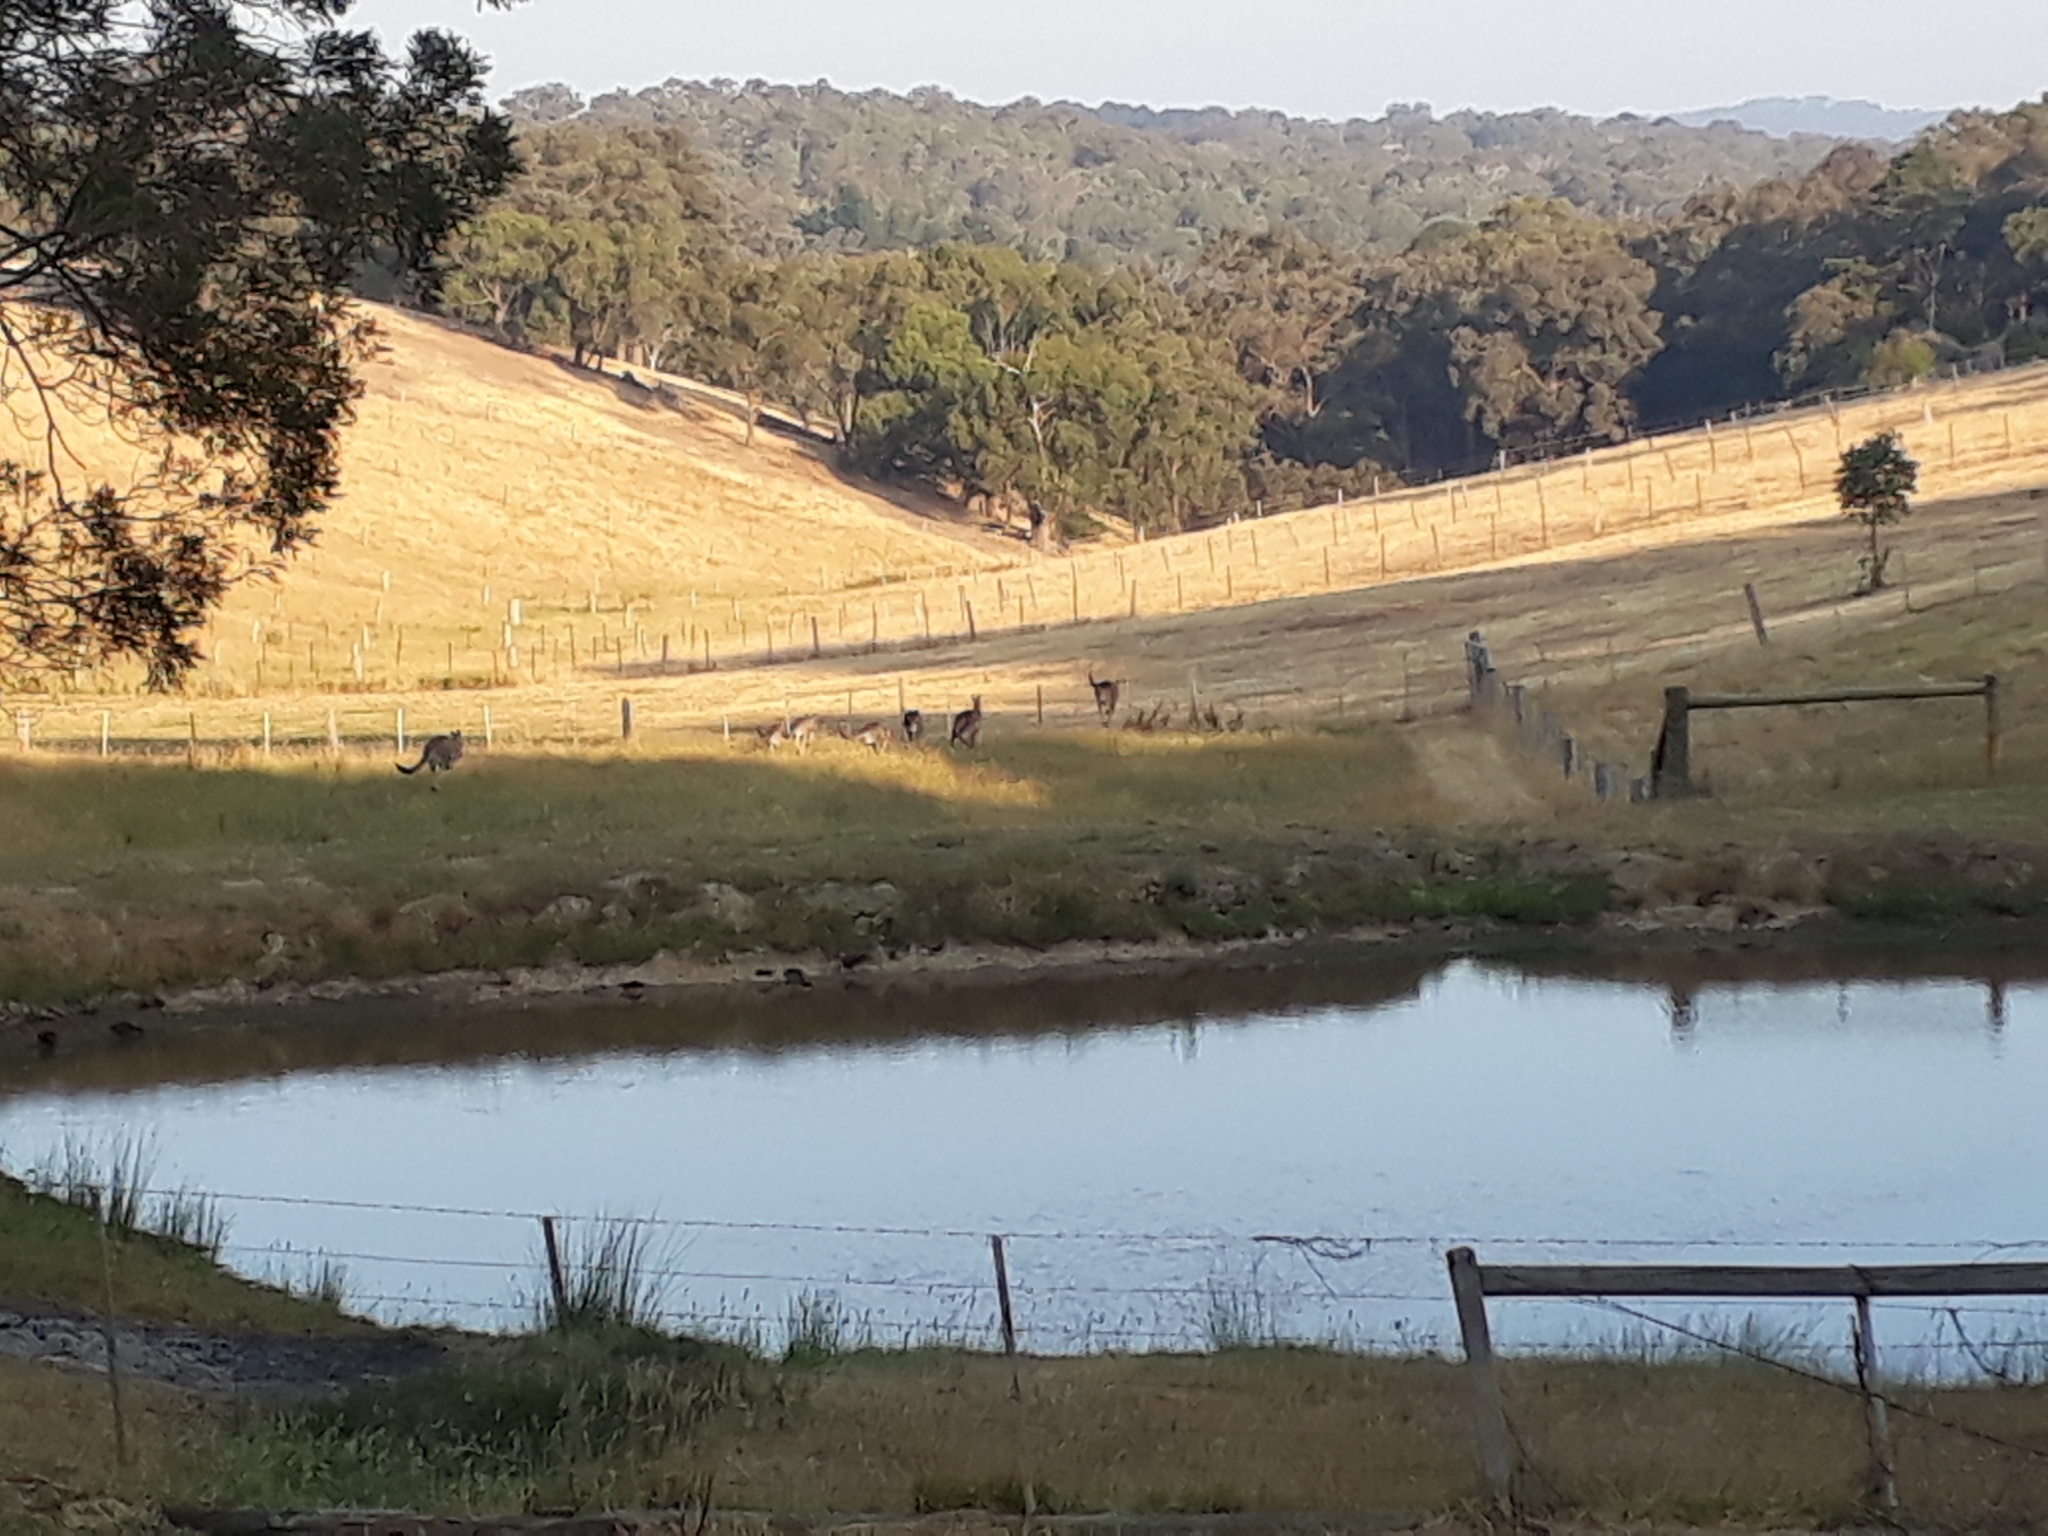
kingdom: Animalia
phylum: Chordata
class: Mammalia
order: Diprotodontia
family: Macropodidae
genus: Macropus
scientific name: Macropus giganteus
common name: Eastern grey kangaroo
